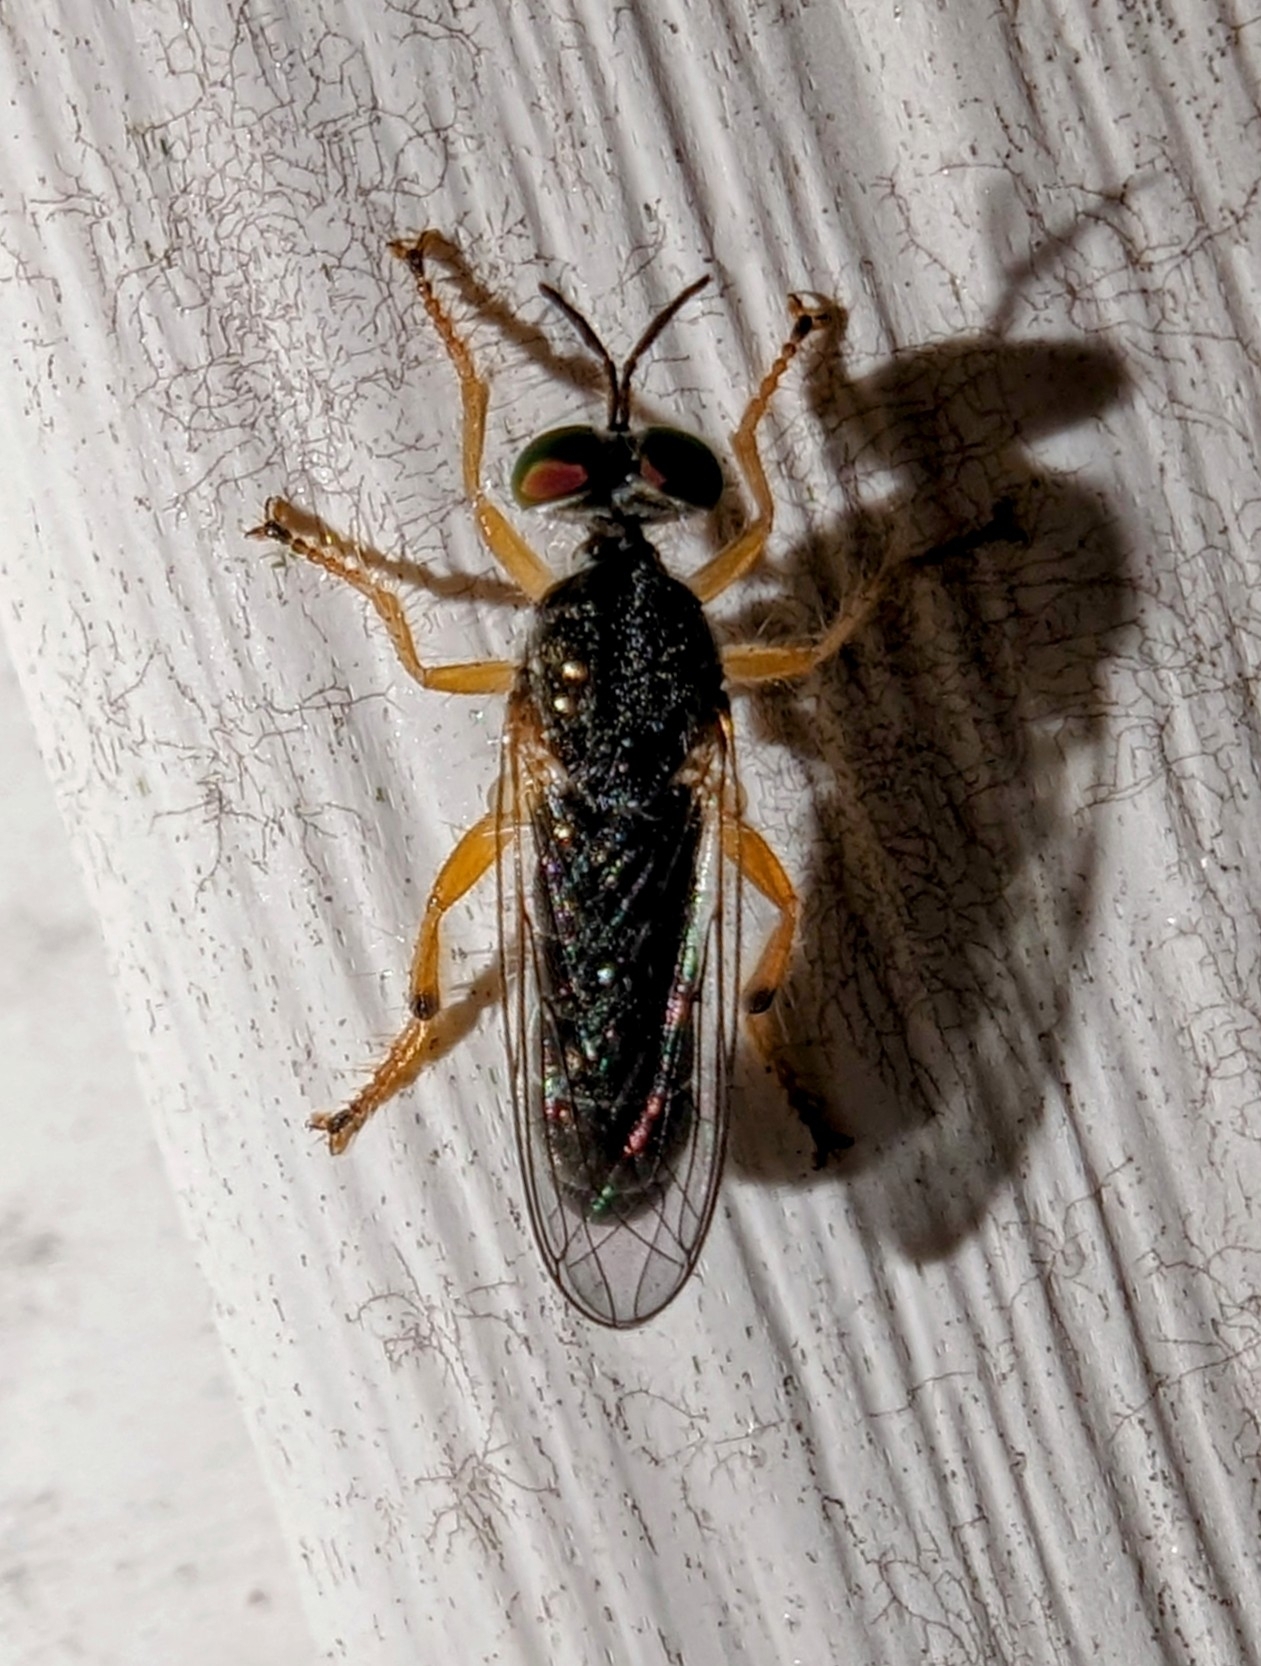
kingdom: Animalia
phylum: Arthropoda
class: Insecta
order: Diptera
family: Asilidae
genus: Atomosia
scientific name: Atomosia rufipes
